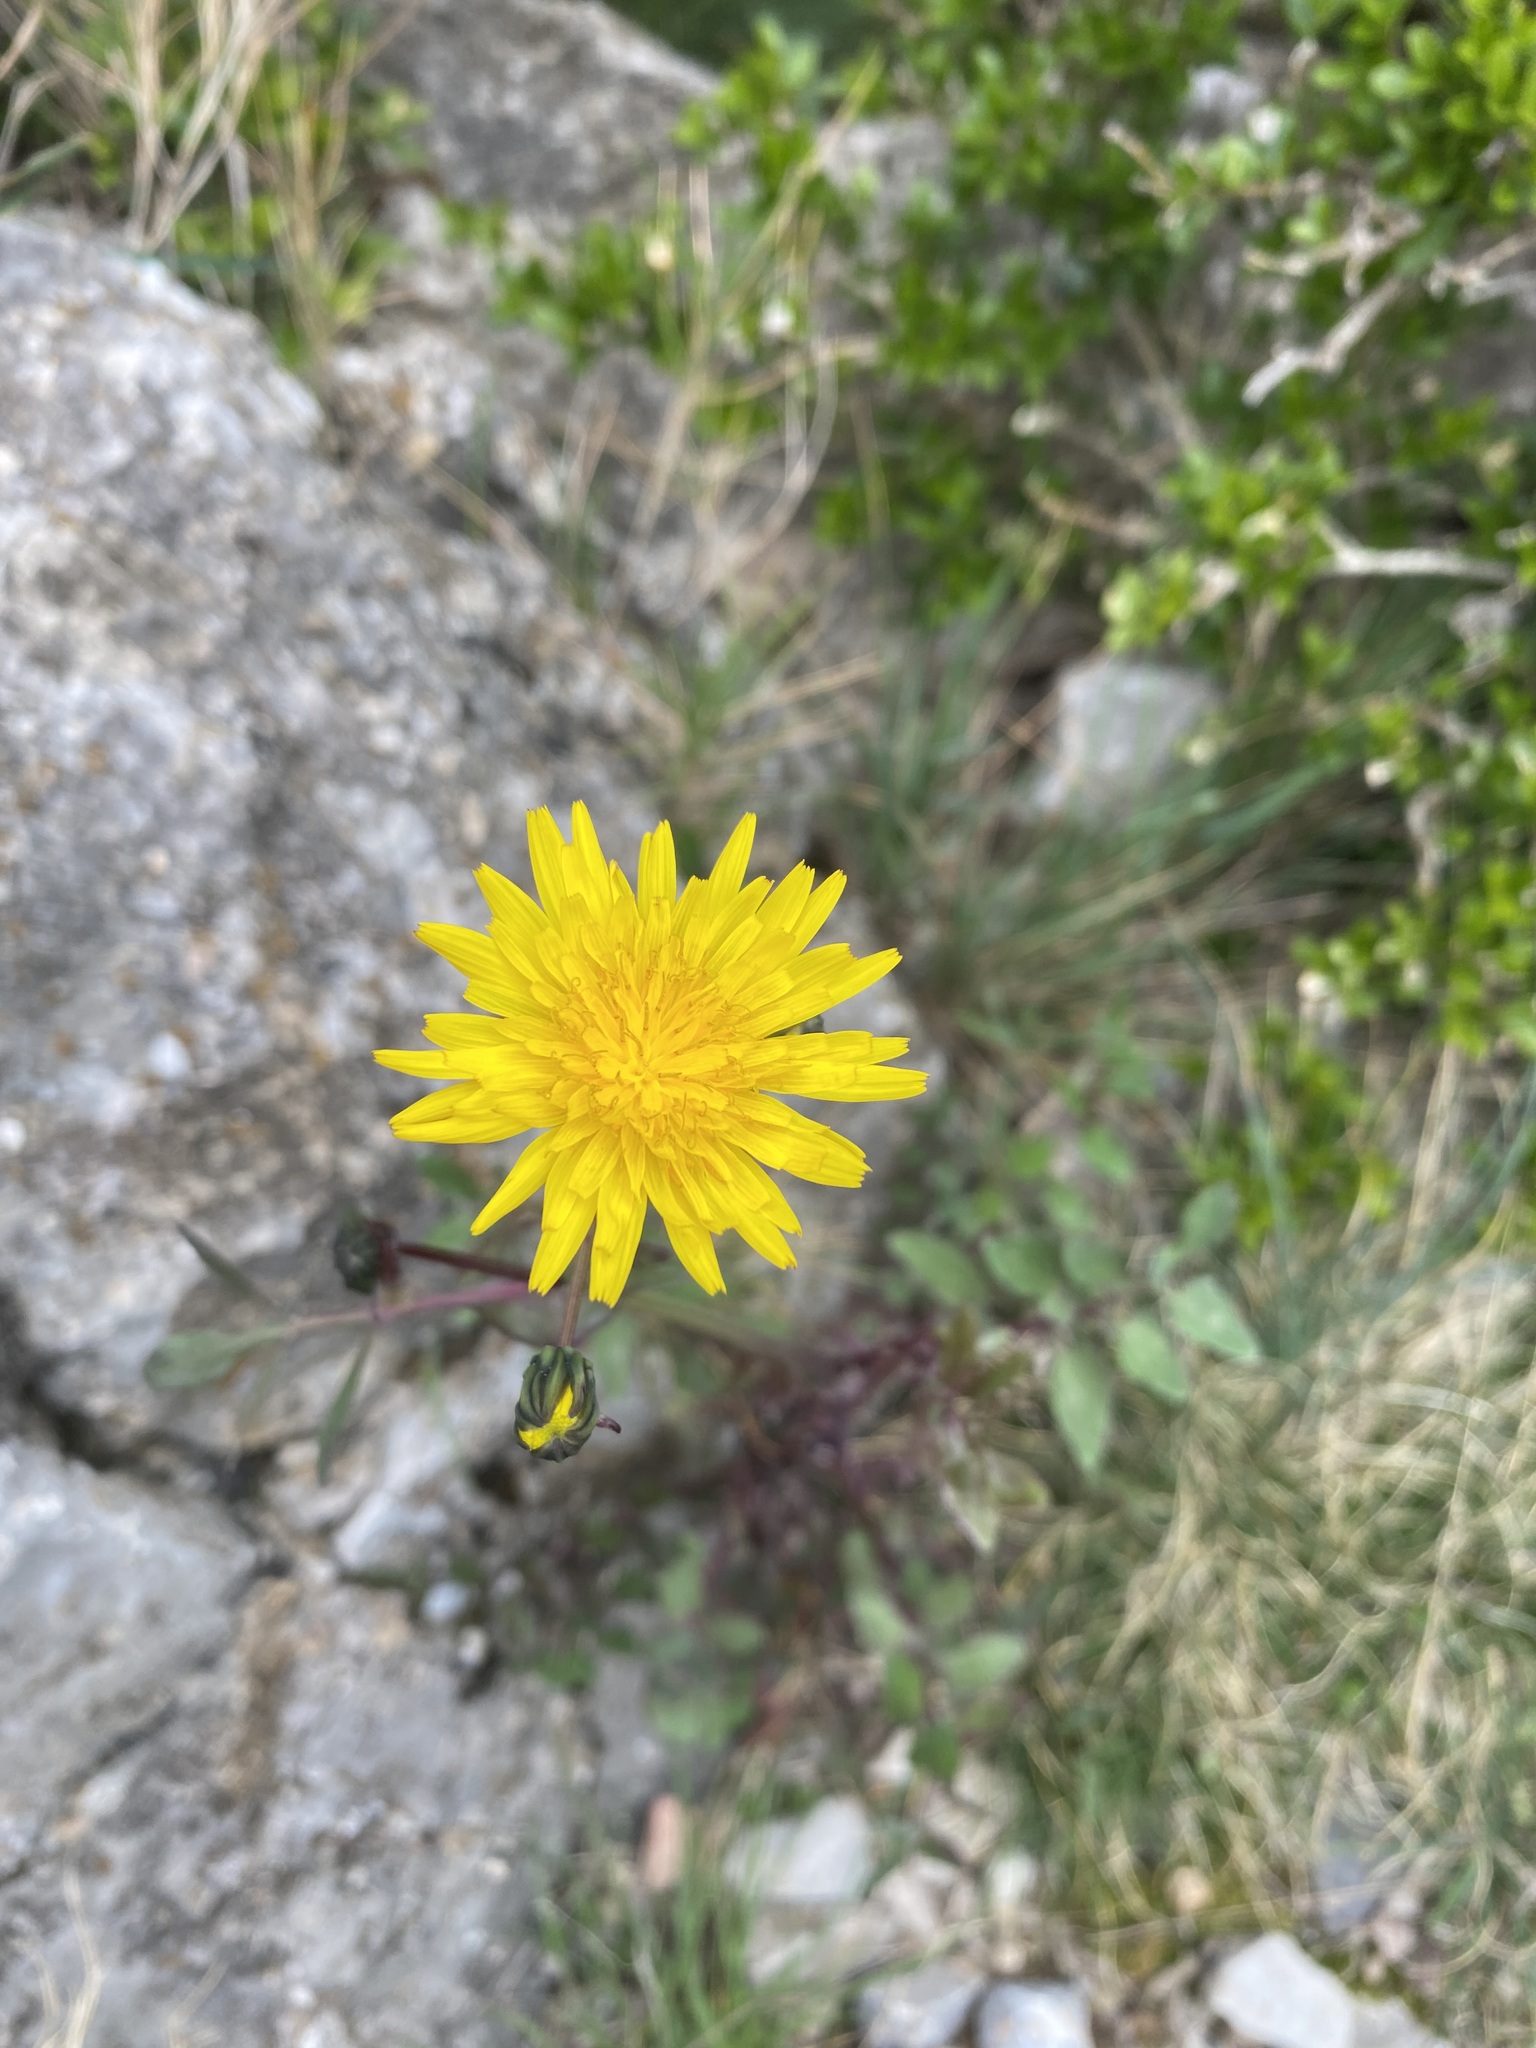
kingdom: Plantae
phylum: Tracheophyta
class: Magnoliopsida
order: Asterales
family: Asteraceae
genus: Sonchus
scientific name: Sonchus tenerrimus
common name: Clammy sowthistle
